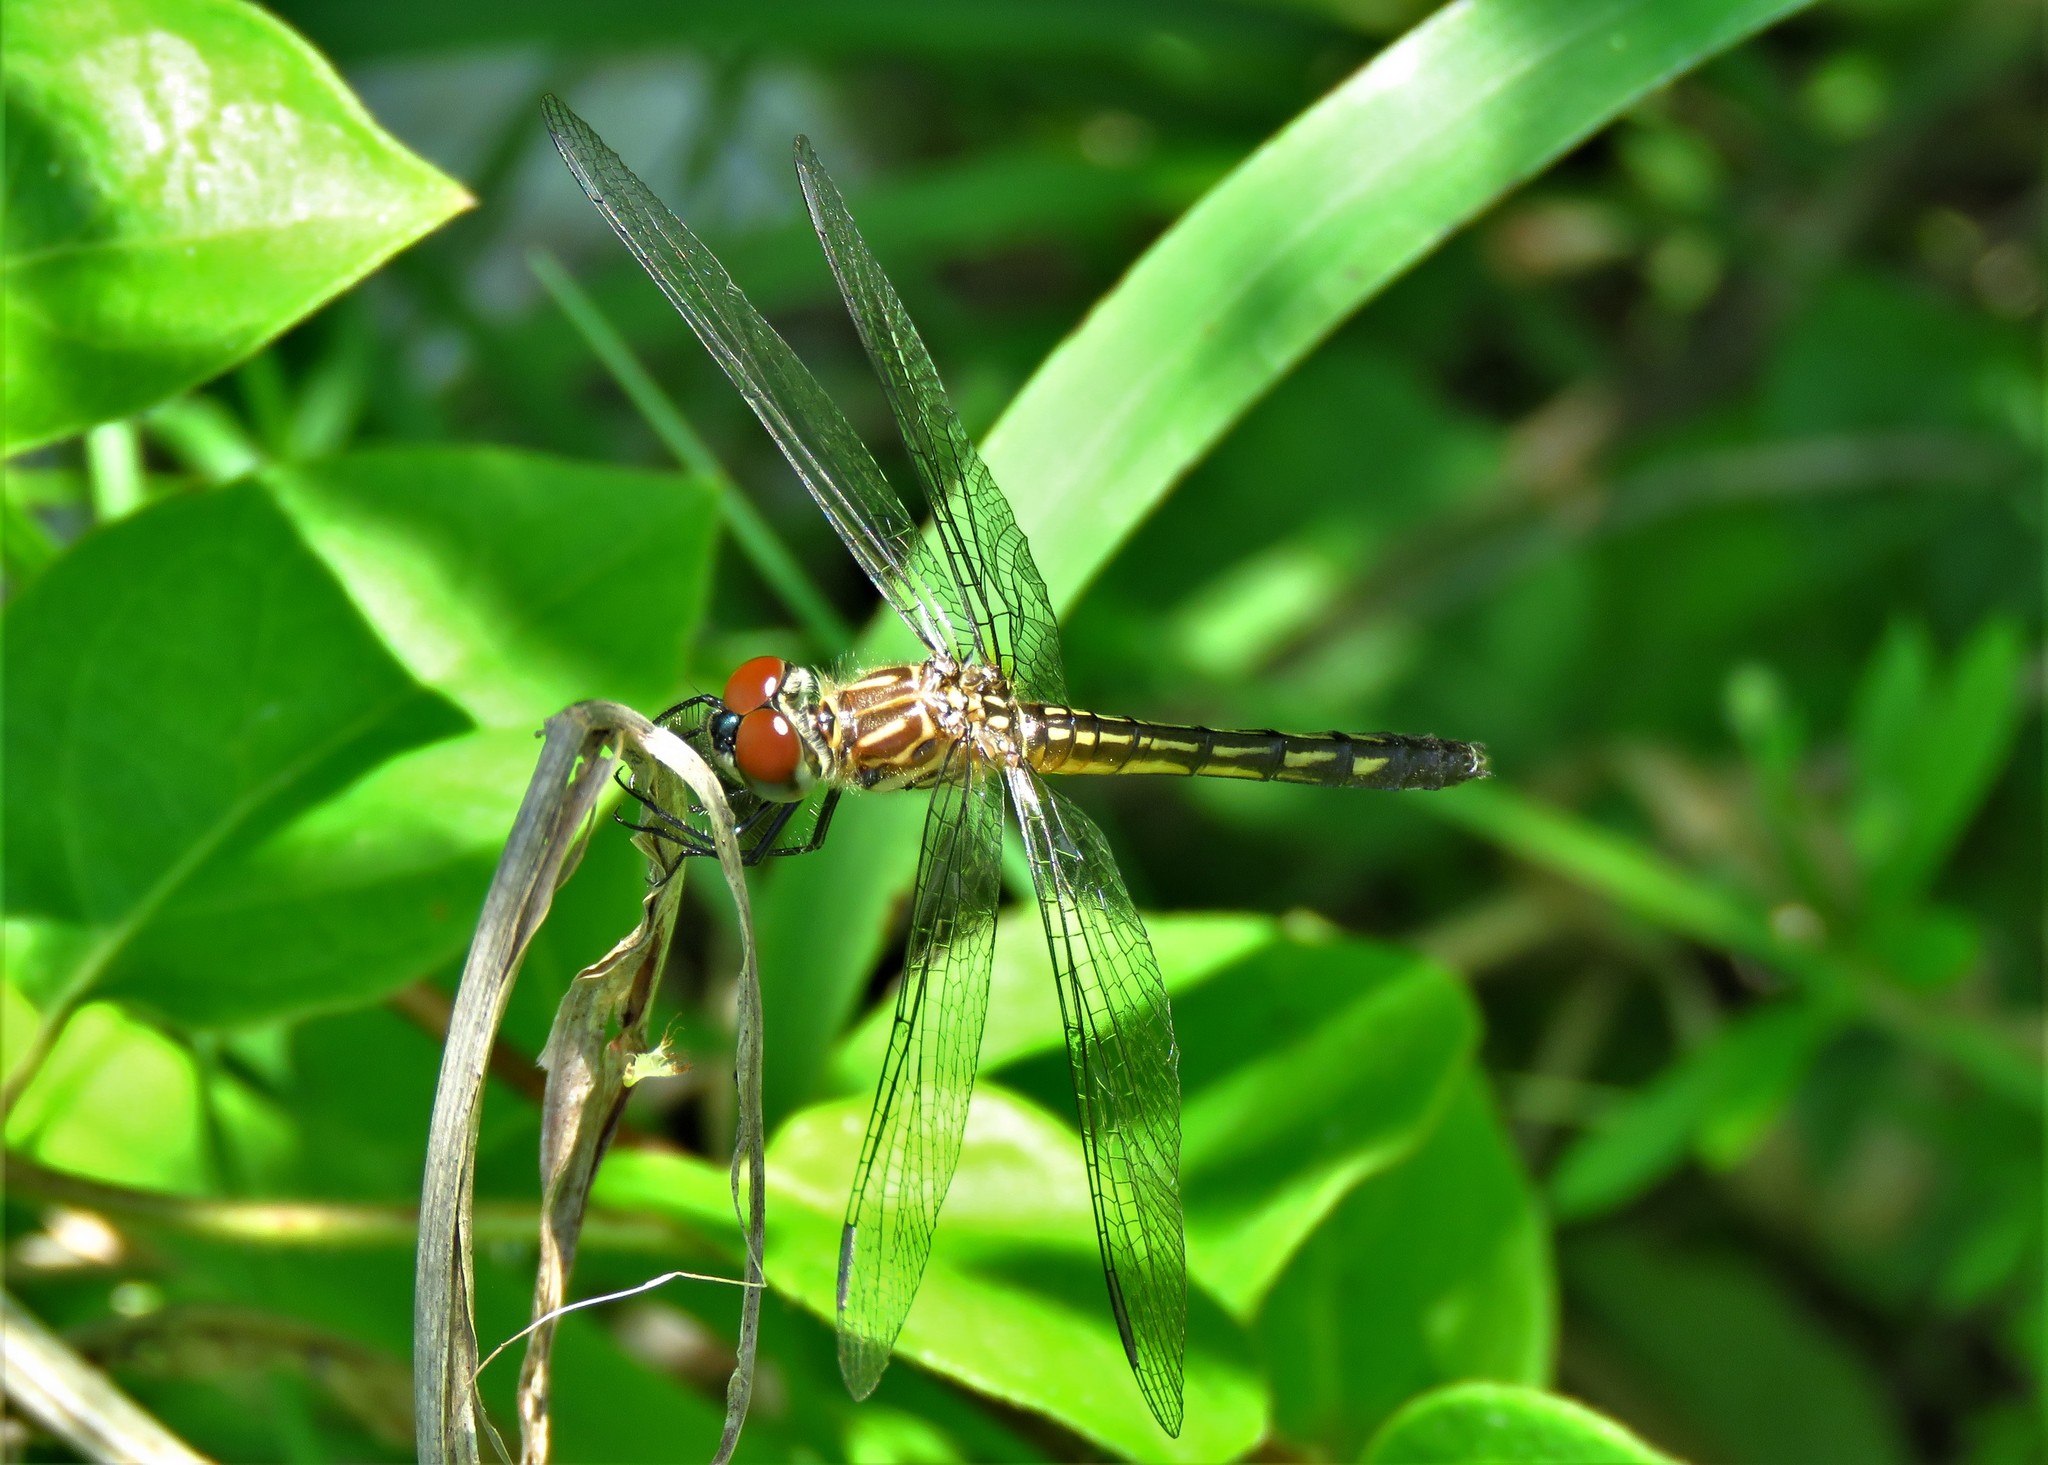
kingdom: Animalia
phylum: Arthropoda
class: Insecta
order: Odonata
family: Libellulidae
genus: Pachydiplax
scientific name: Pachydiplax longipennis
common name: Blue dasher
